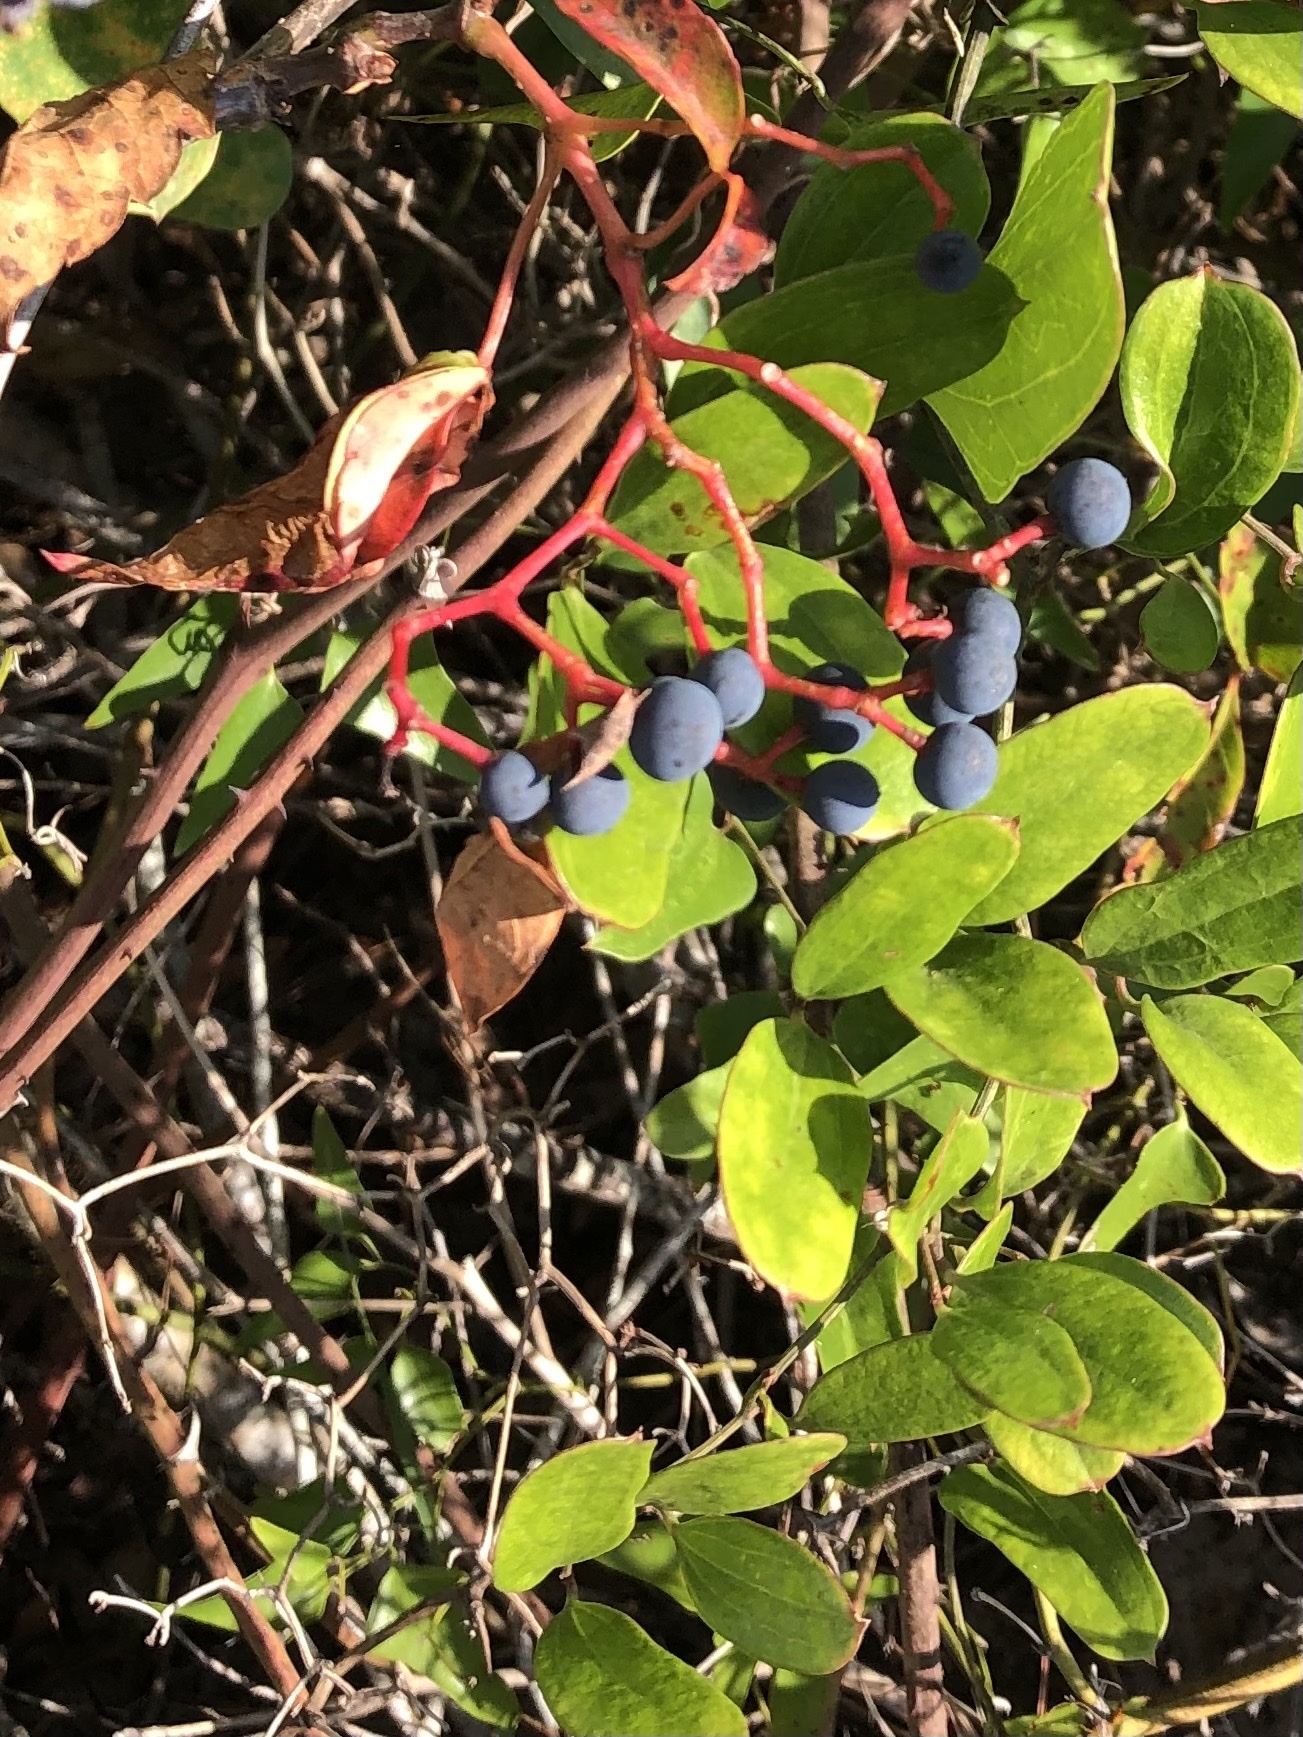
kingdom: Plantae
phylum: Tracheophyta
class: Magnoliopsida
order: Vitales
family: Vitaceae
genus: Parthenocissus
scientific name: Parthenocissus quinquefolia
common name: Virginia-creeper
